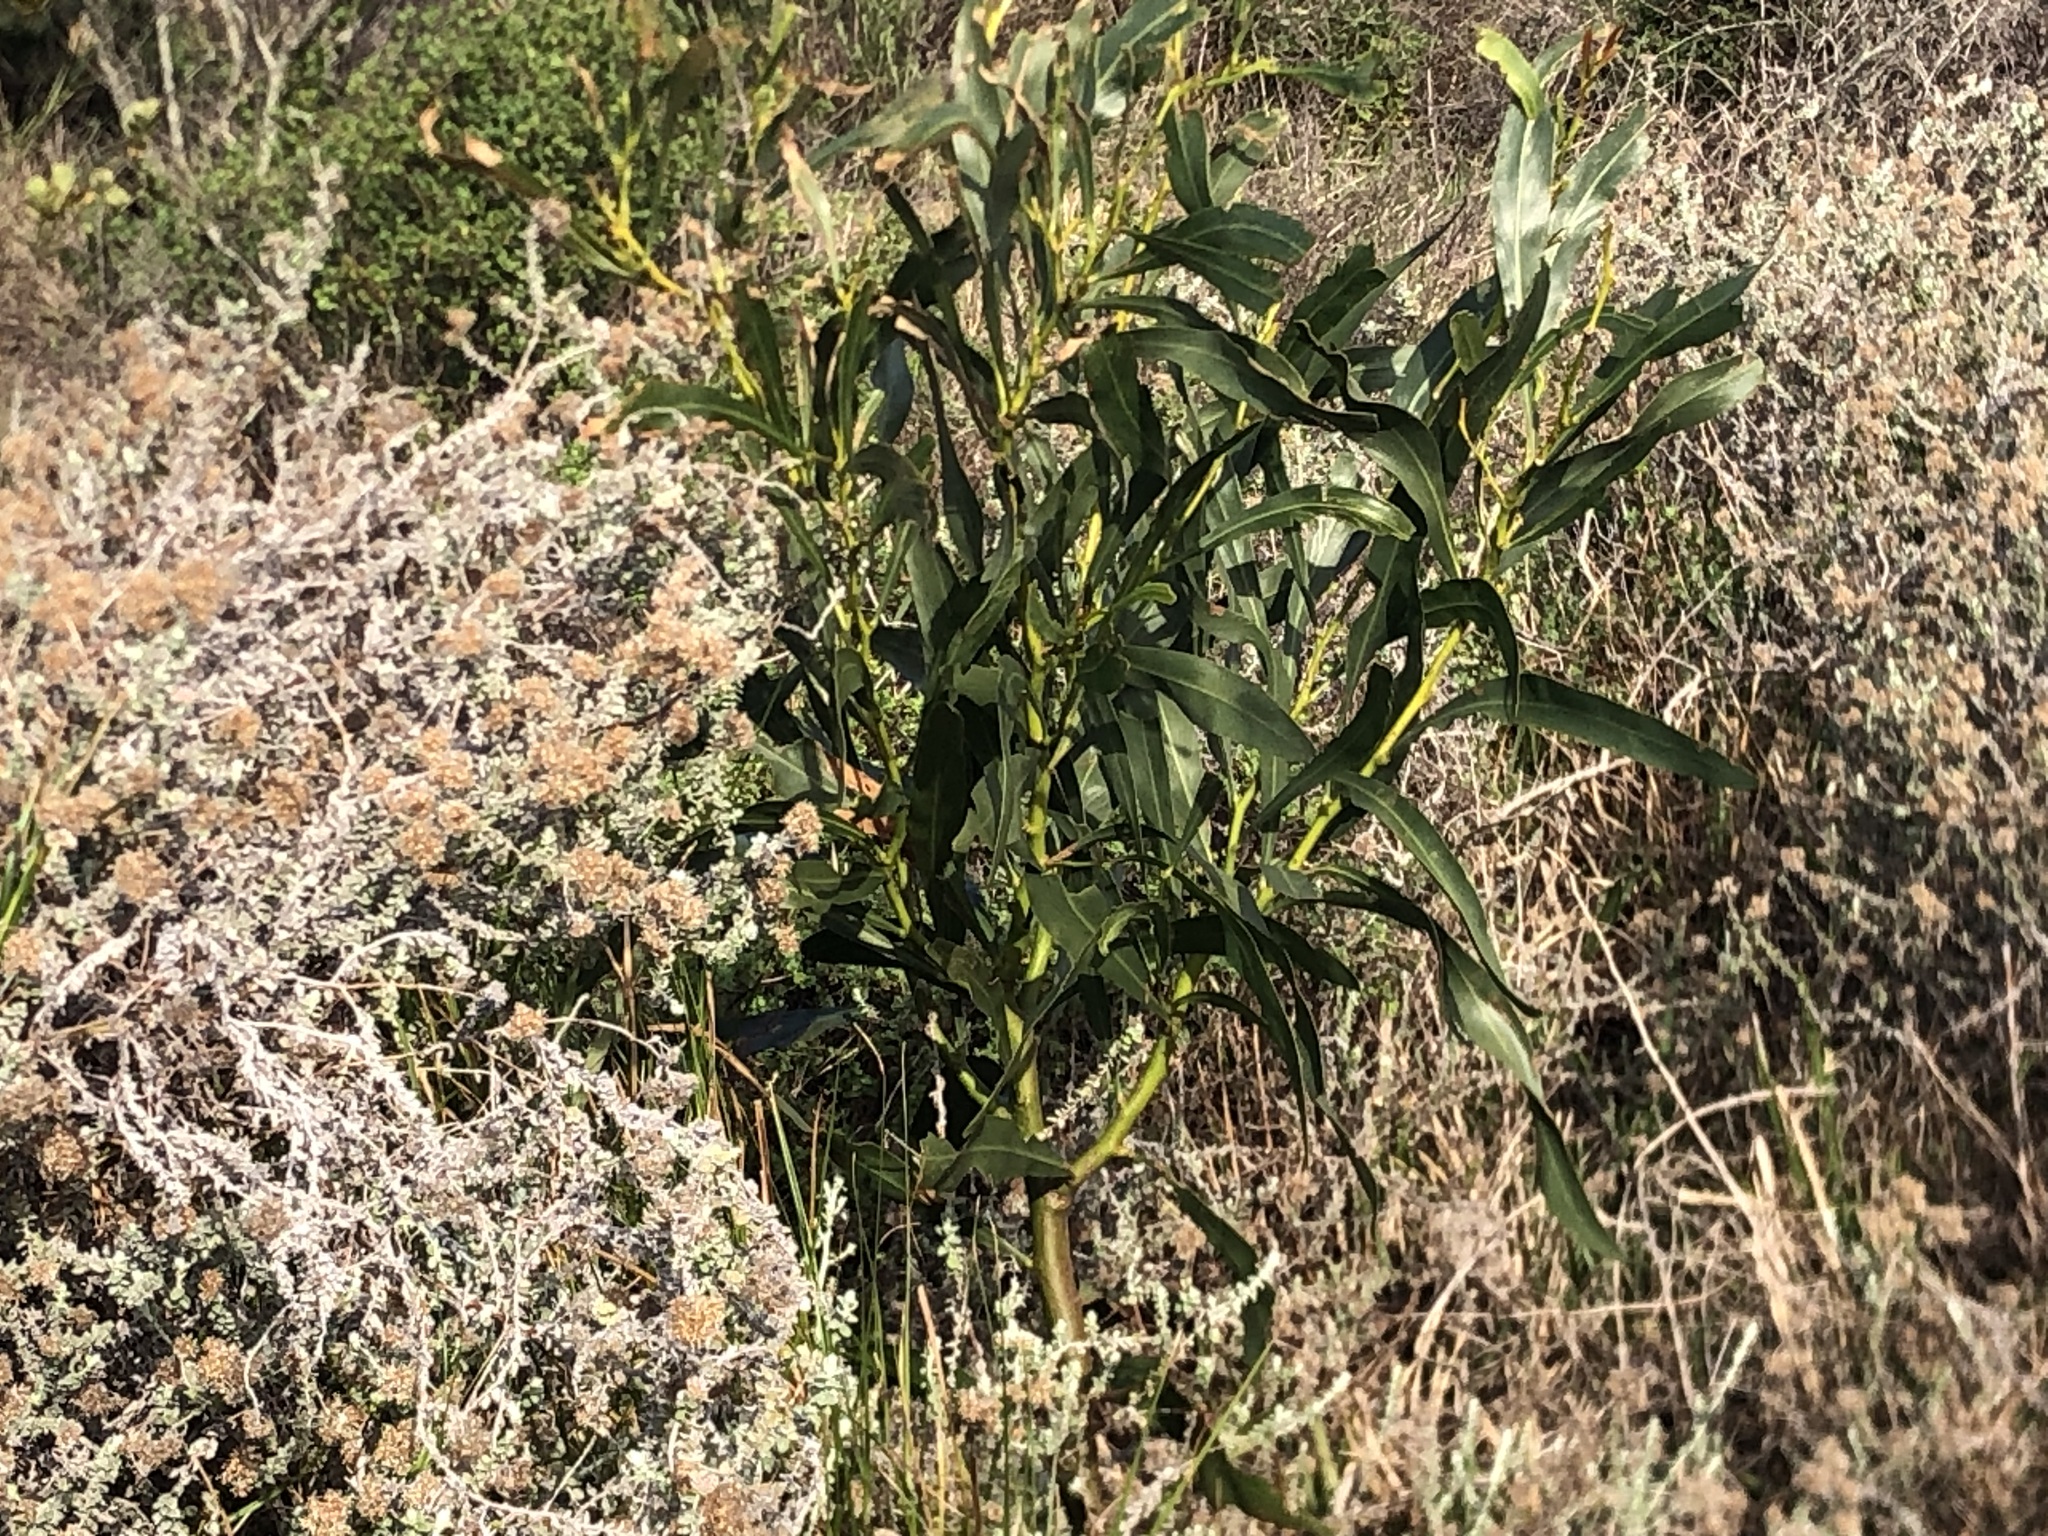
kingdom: Plantae
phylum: Tracheophyta
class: Magnoliopsida
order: Fabales
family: Fabaceae
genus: Acacia
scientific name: Acacia saligna
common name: Orange wattle
